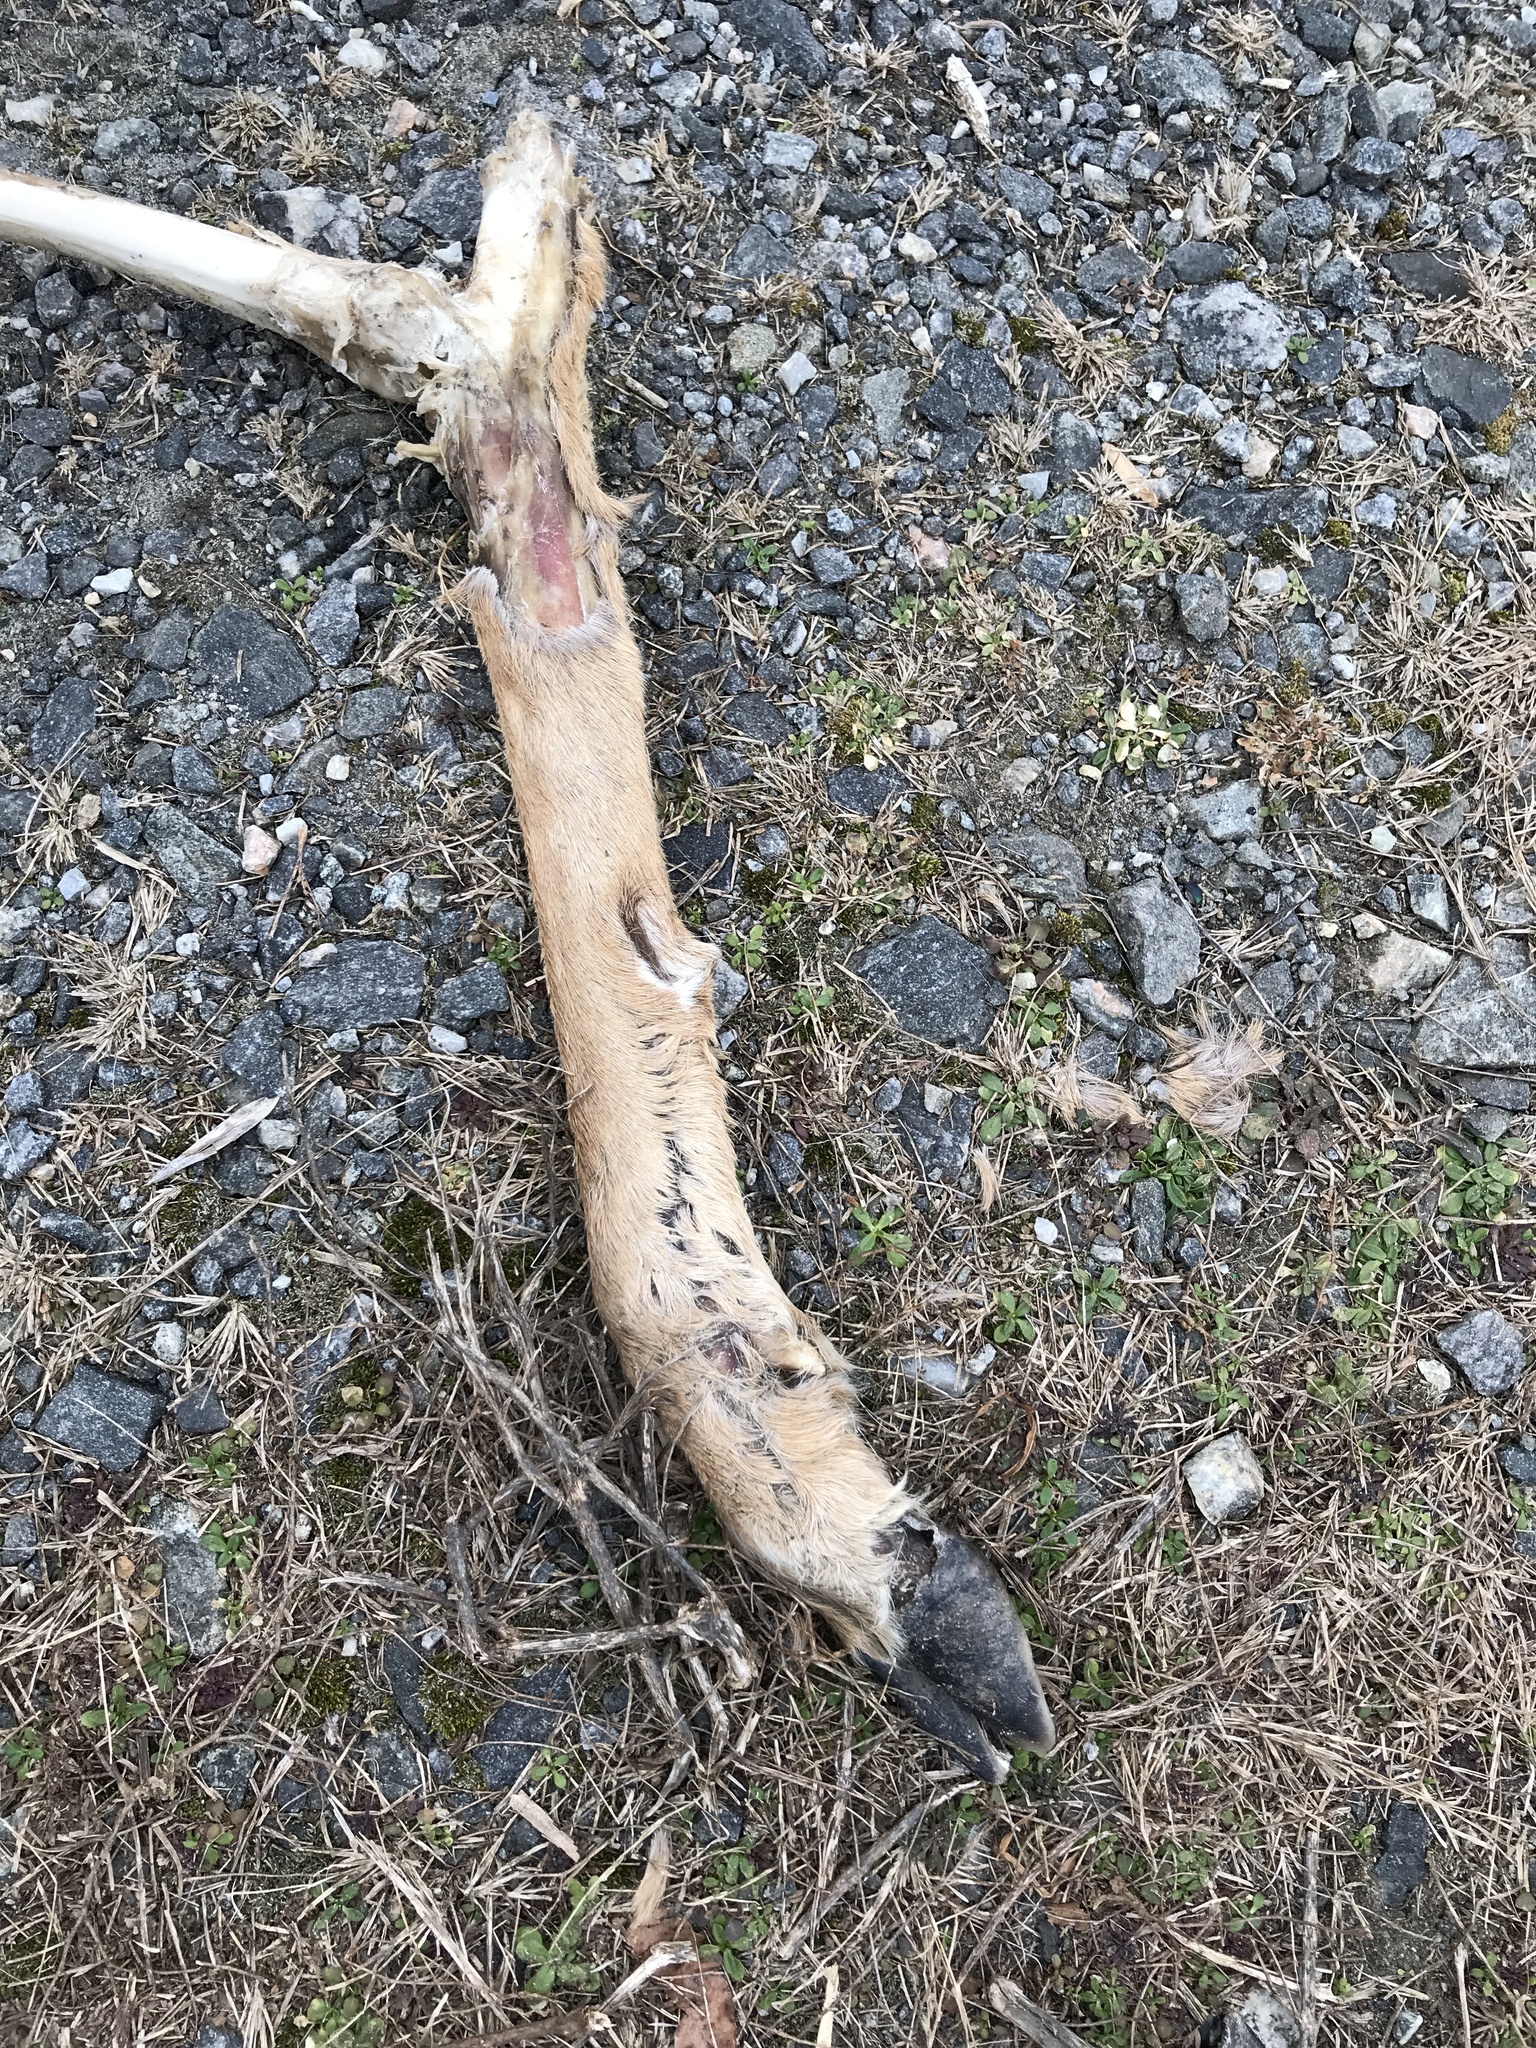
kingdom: Animalia
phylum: Chordata
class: Mammalia
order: Artiodactyla
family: Cervidae
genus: Odocoileus
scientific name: Odocoileus virginianus
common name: White-tailed deer
